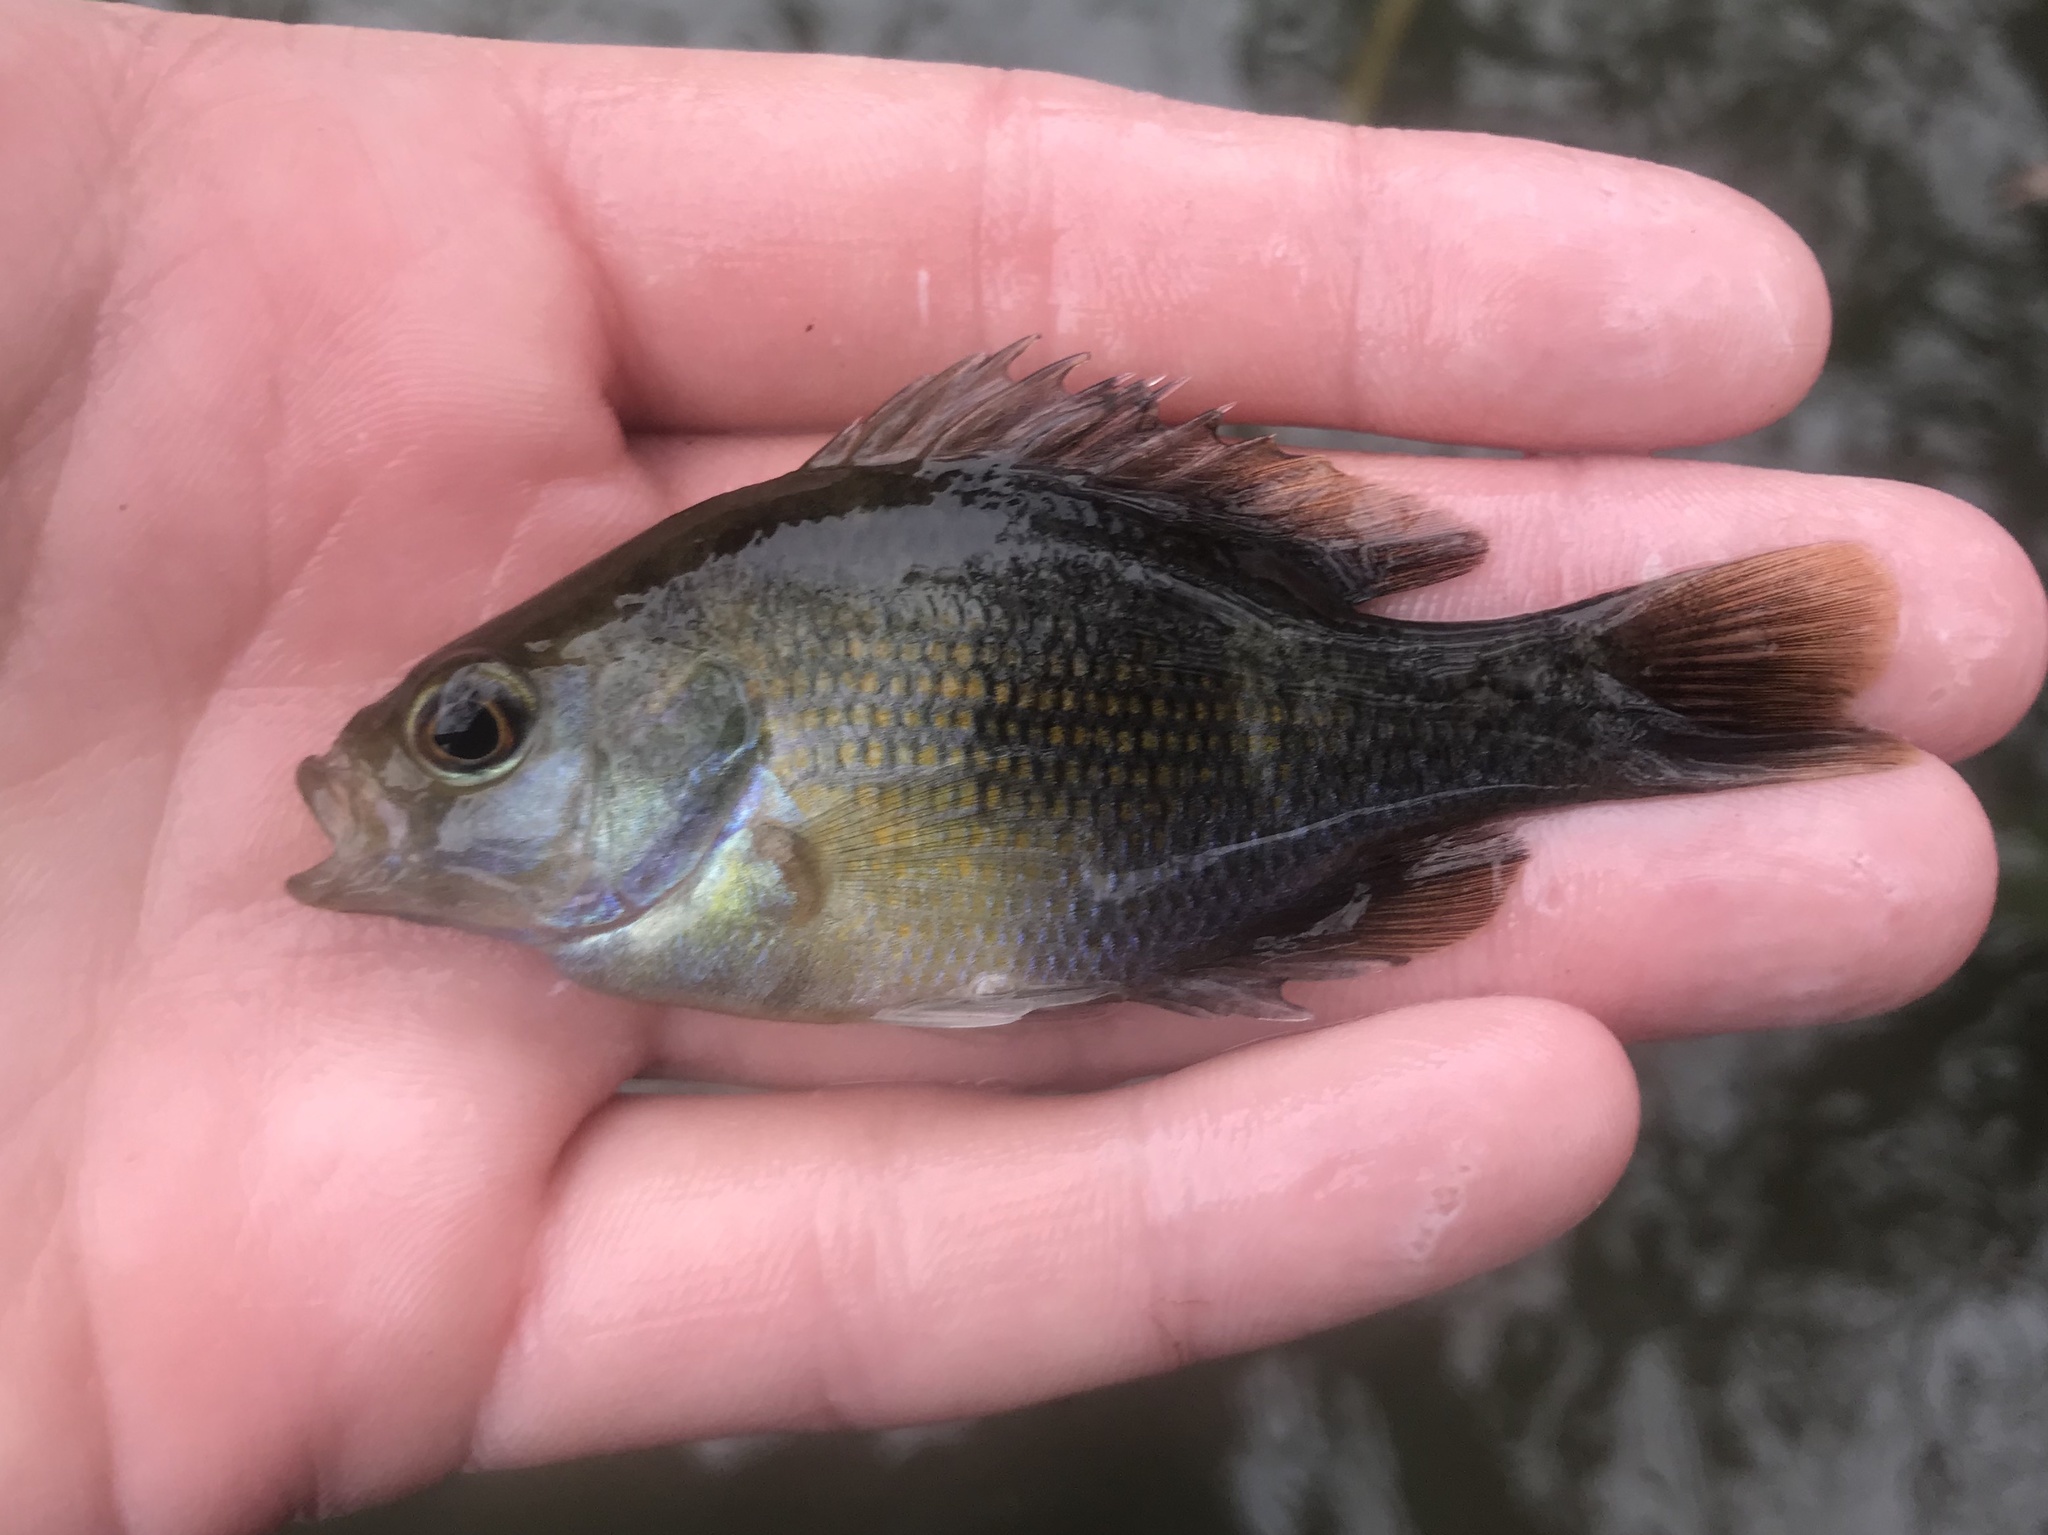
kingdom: Animalia
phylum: Chordata
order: Perciformes
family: Centrarchidae
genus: Lepomis
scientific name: Lepomis miniatus
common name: Redspotted sunfish
